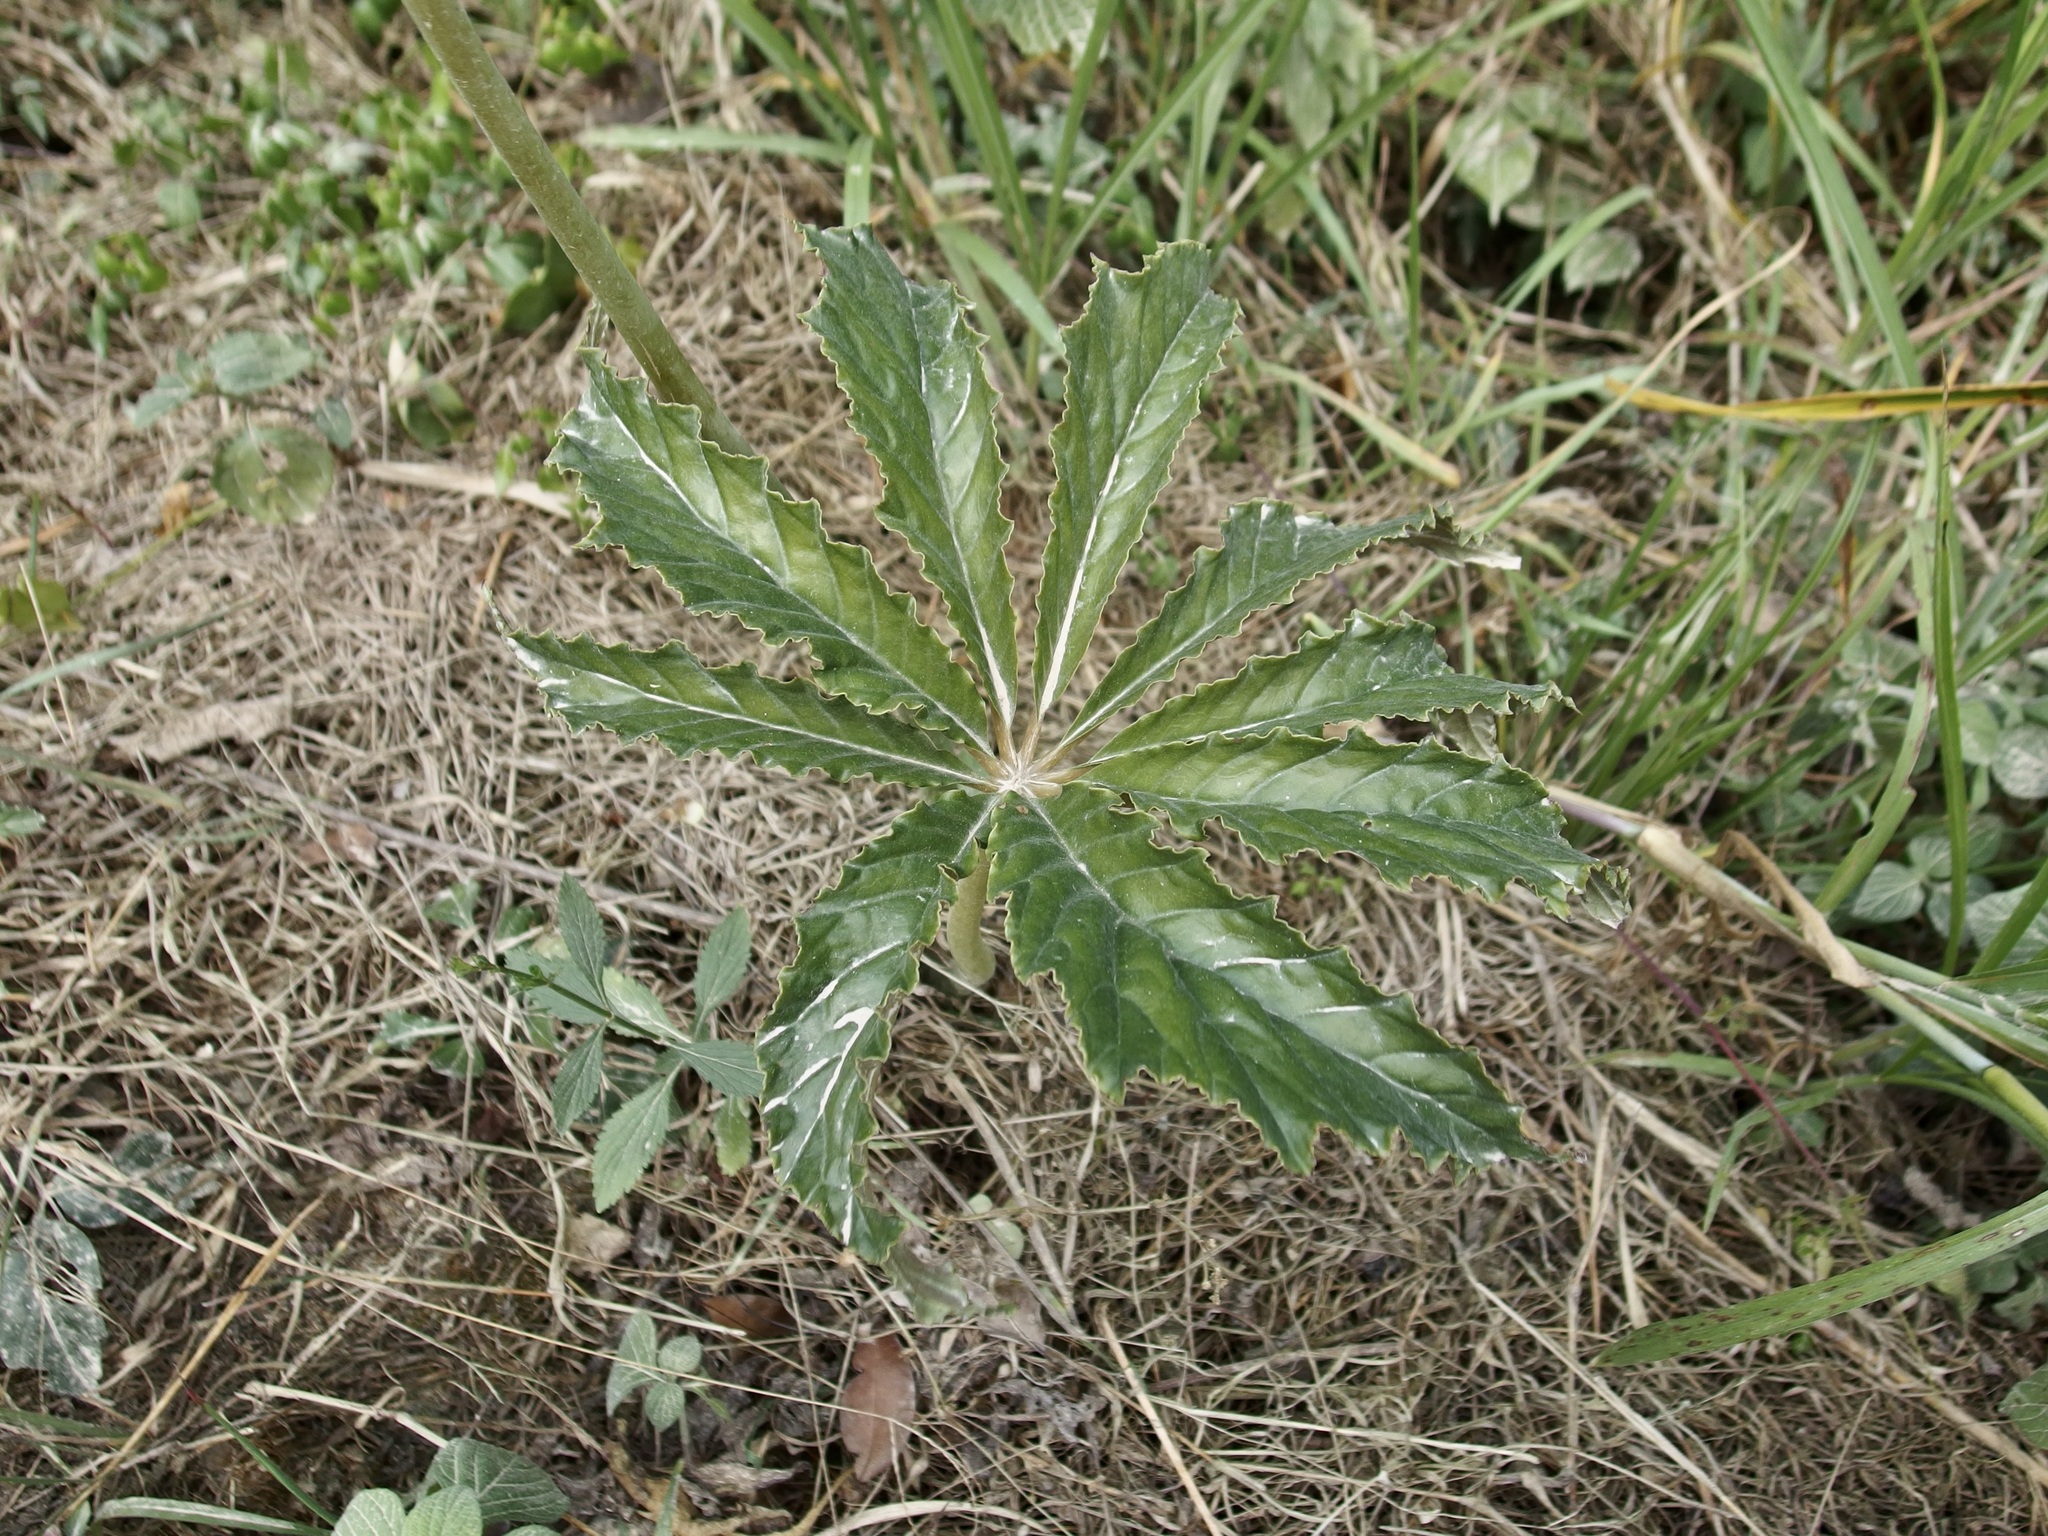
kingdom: Plantae
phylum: Tracheophyta
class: Magnoliopsida
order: Cucurbitales
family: Begoniaceae
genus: Begonia
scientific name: Begonia thiemei
